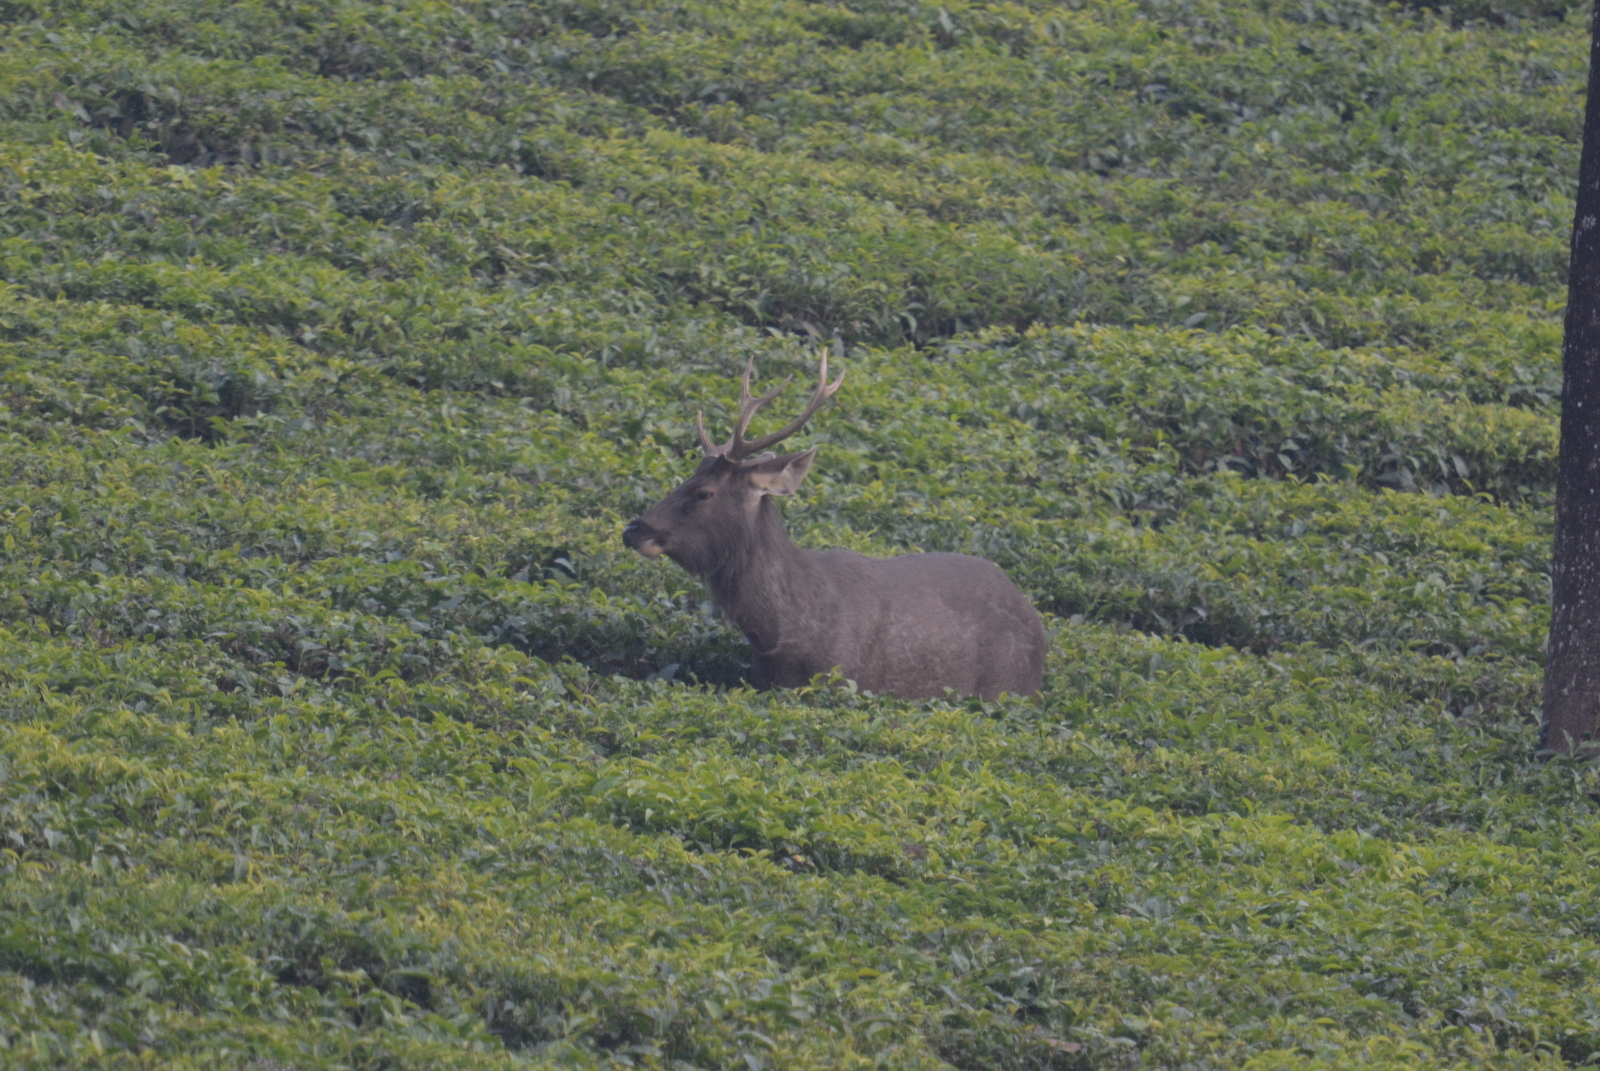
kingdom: Animalia
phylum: Chordata
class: Mammalia
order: Artiodactyla
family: Cervidae
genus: Rusa
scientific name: Rusa unicolor
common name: Sambar
